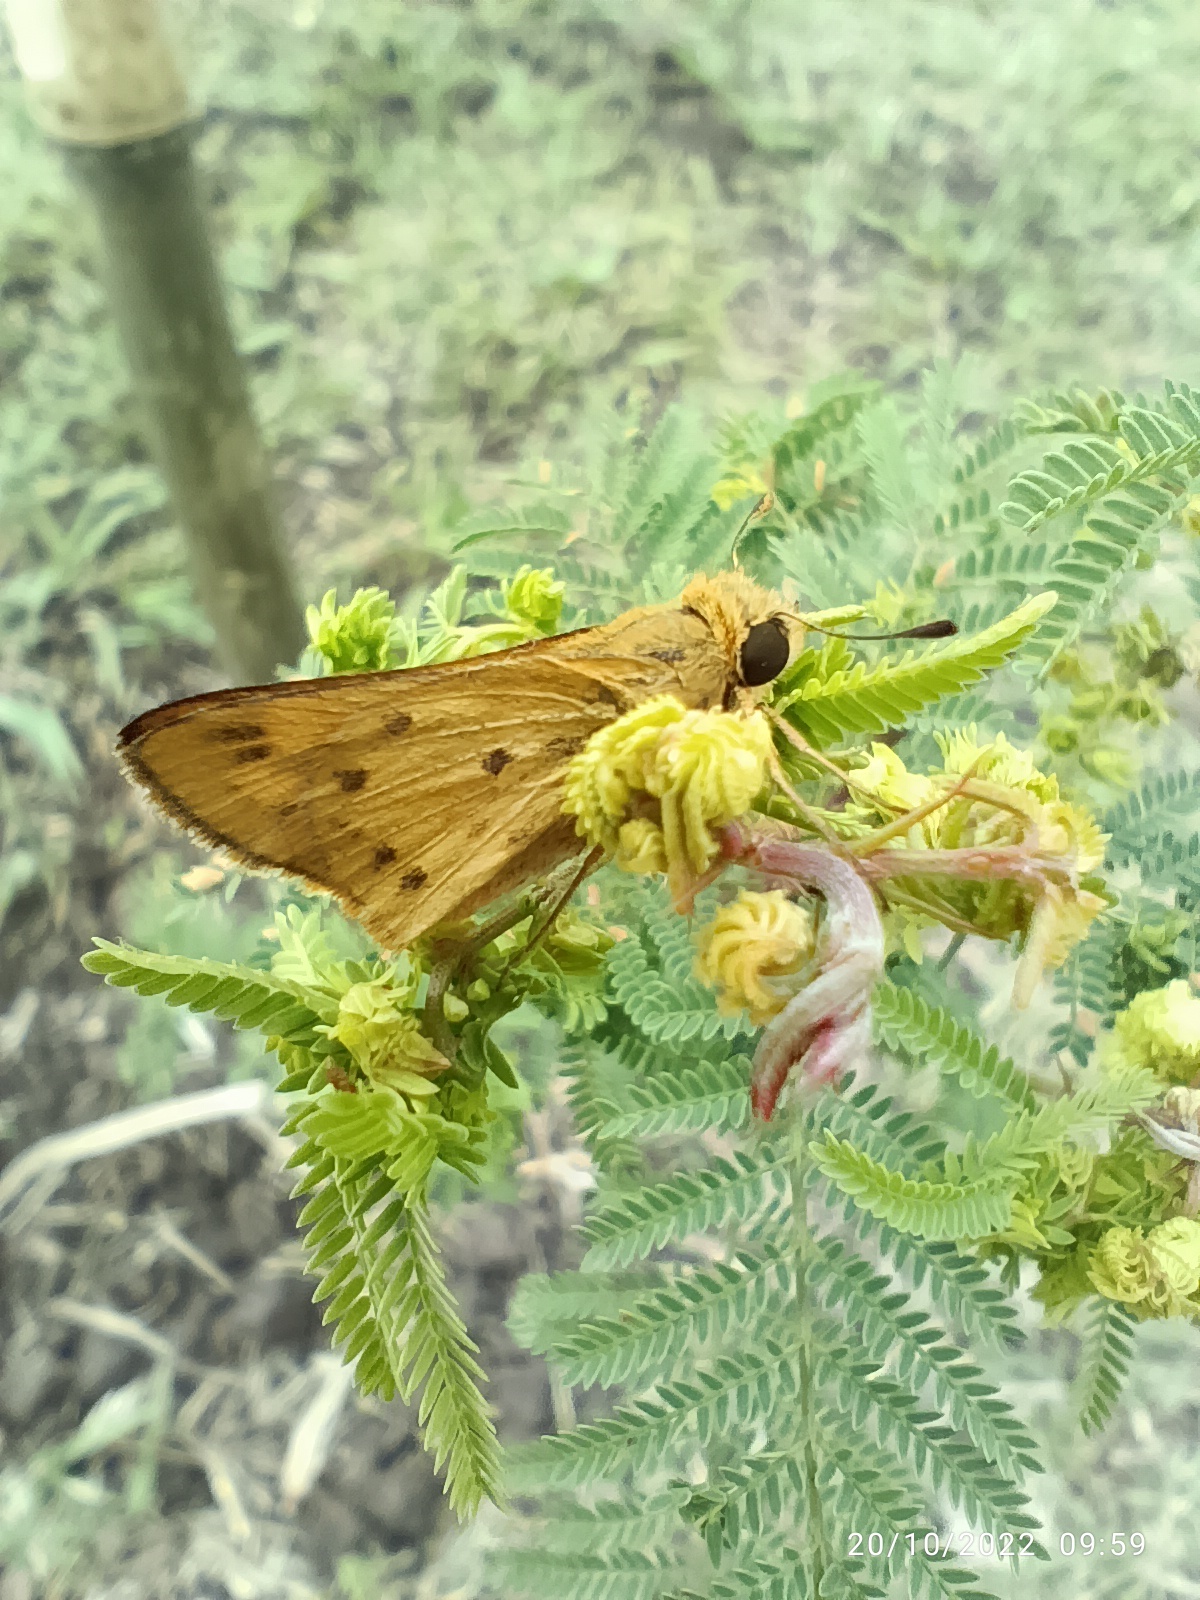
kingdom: Animalia
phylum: Arthropoda
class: Insecta
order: Lepidoptera
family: Hesperiidae
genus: Hylephila
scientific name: Hylephila phyleus
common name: Fiery skipper
